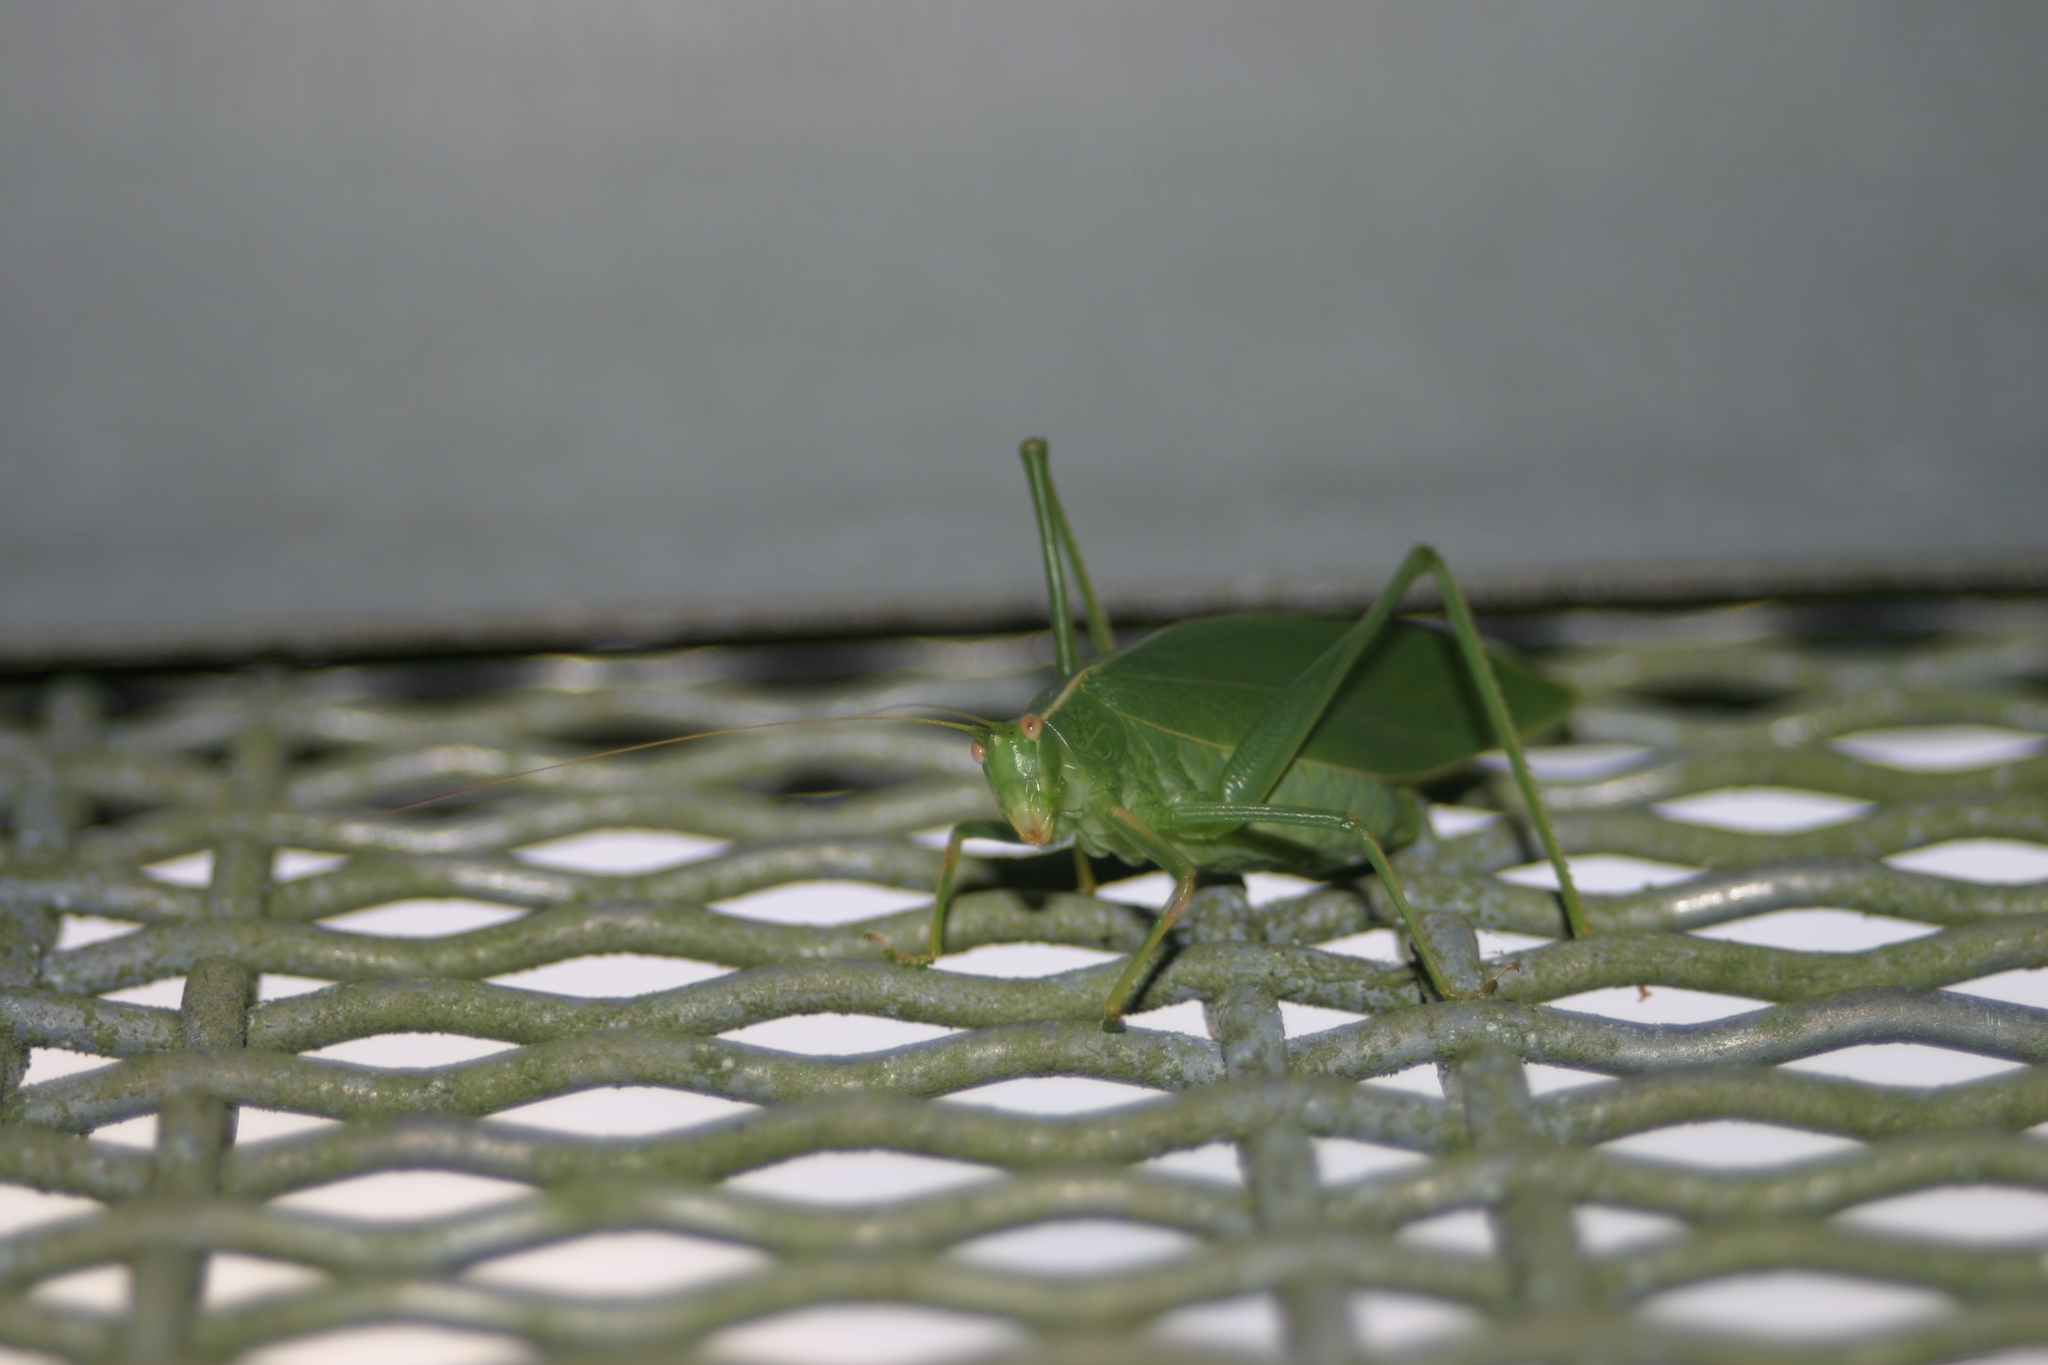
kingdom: Animalia
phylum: Arthropoda
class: Insecta
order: Orthoptera
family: Tettigoniidae
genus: Caedicia
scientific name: Caedicia simplex
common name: Common garden katydid
